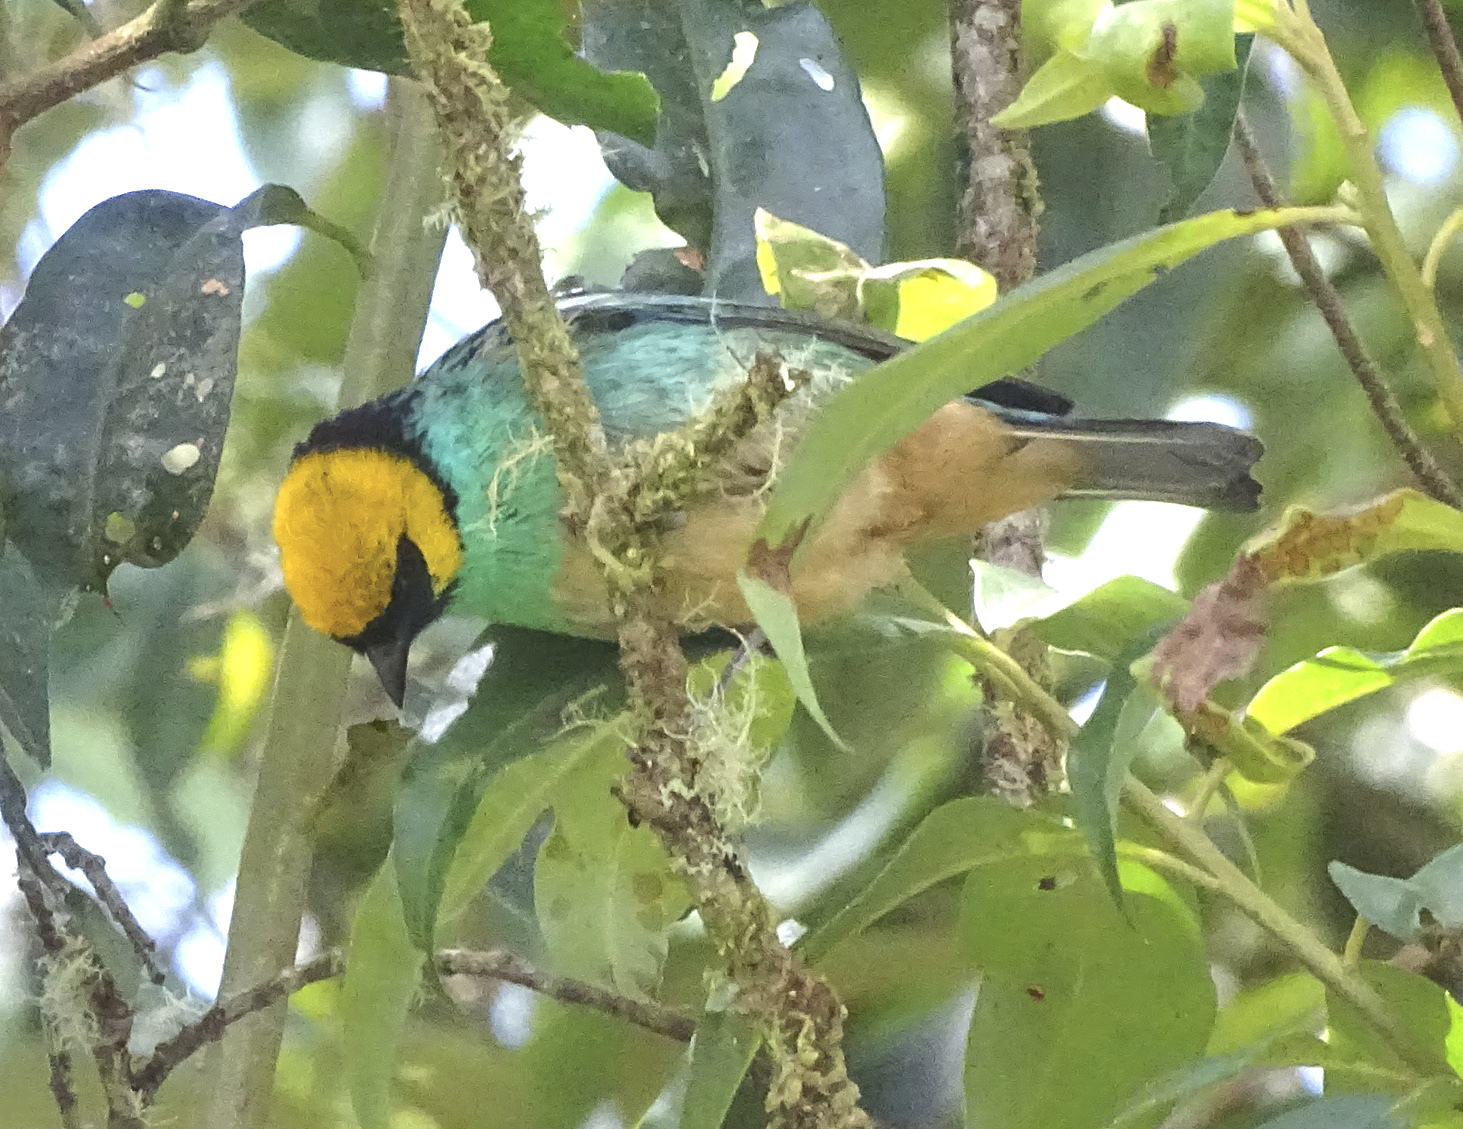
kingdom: Animalia
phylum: Chordata
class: Aves
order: Passeriformes
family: Thraupidae
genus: Tangara
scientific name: Tangara xanthocephala
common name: Saffron-crowned tanager
